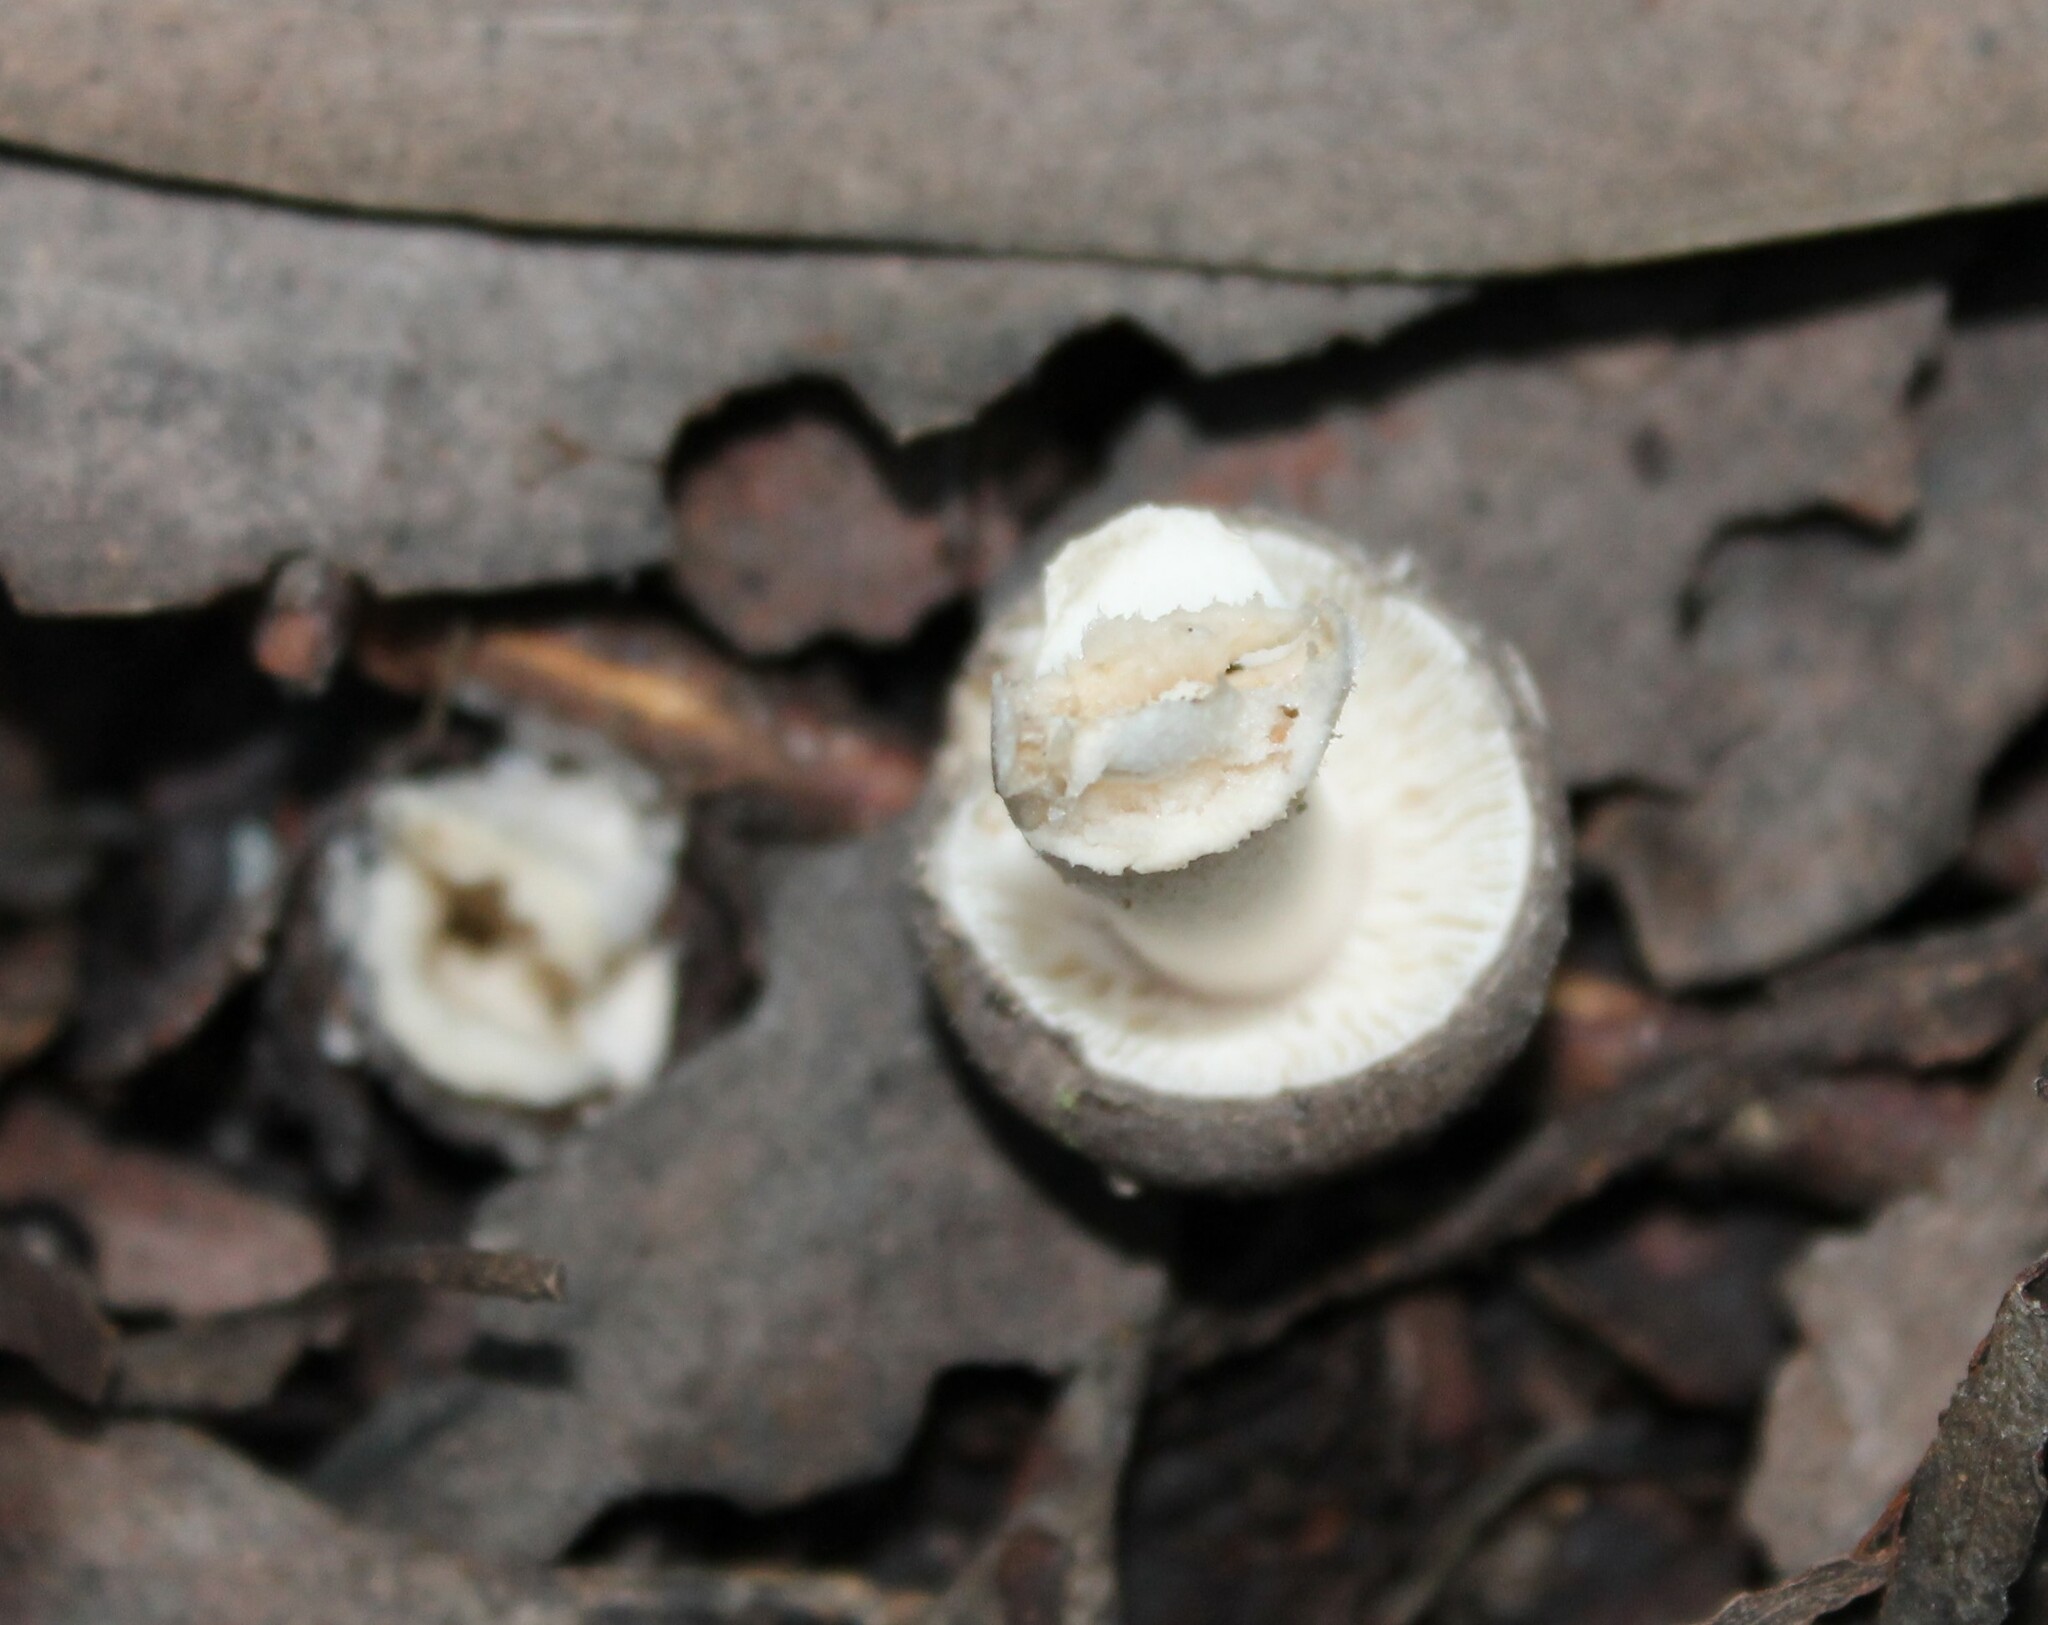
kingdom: Fungi
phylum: Basidiomycota
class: Agaricomycetes
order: Agaricales
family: Amanitaceae
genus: Amanita
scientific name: Amanita nehuta
